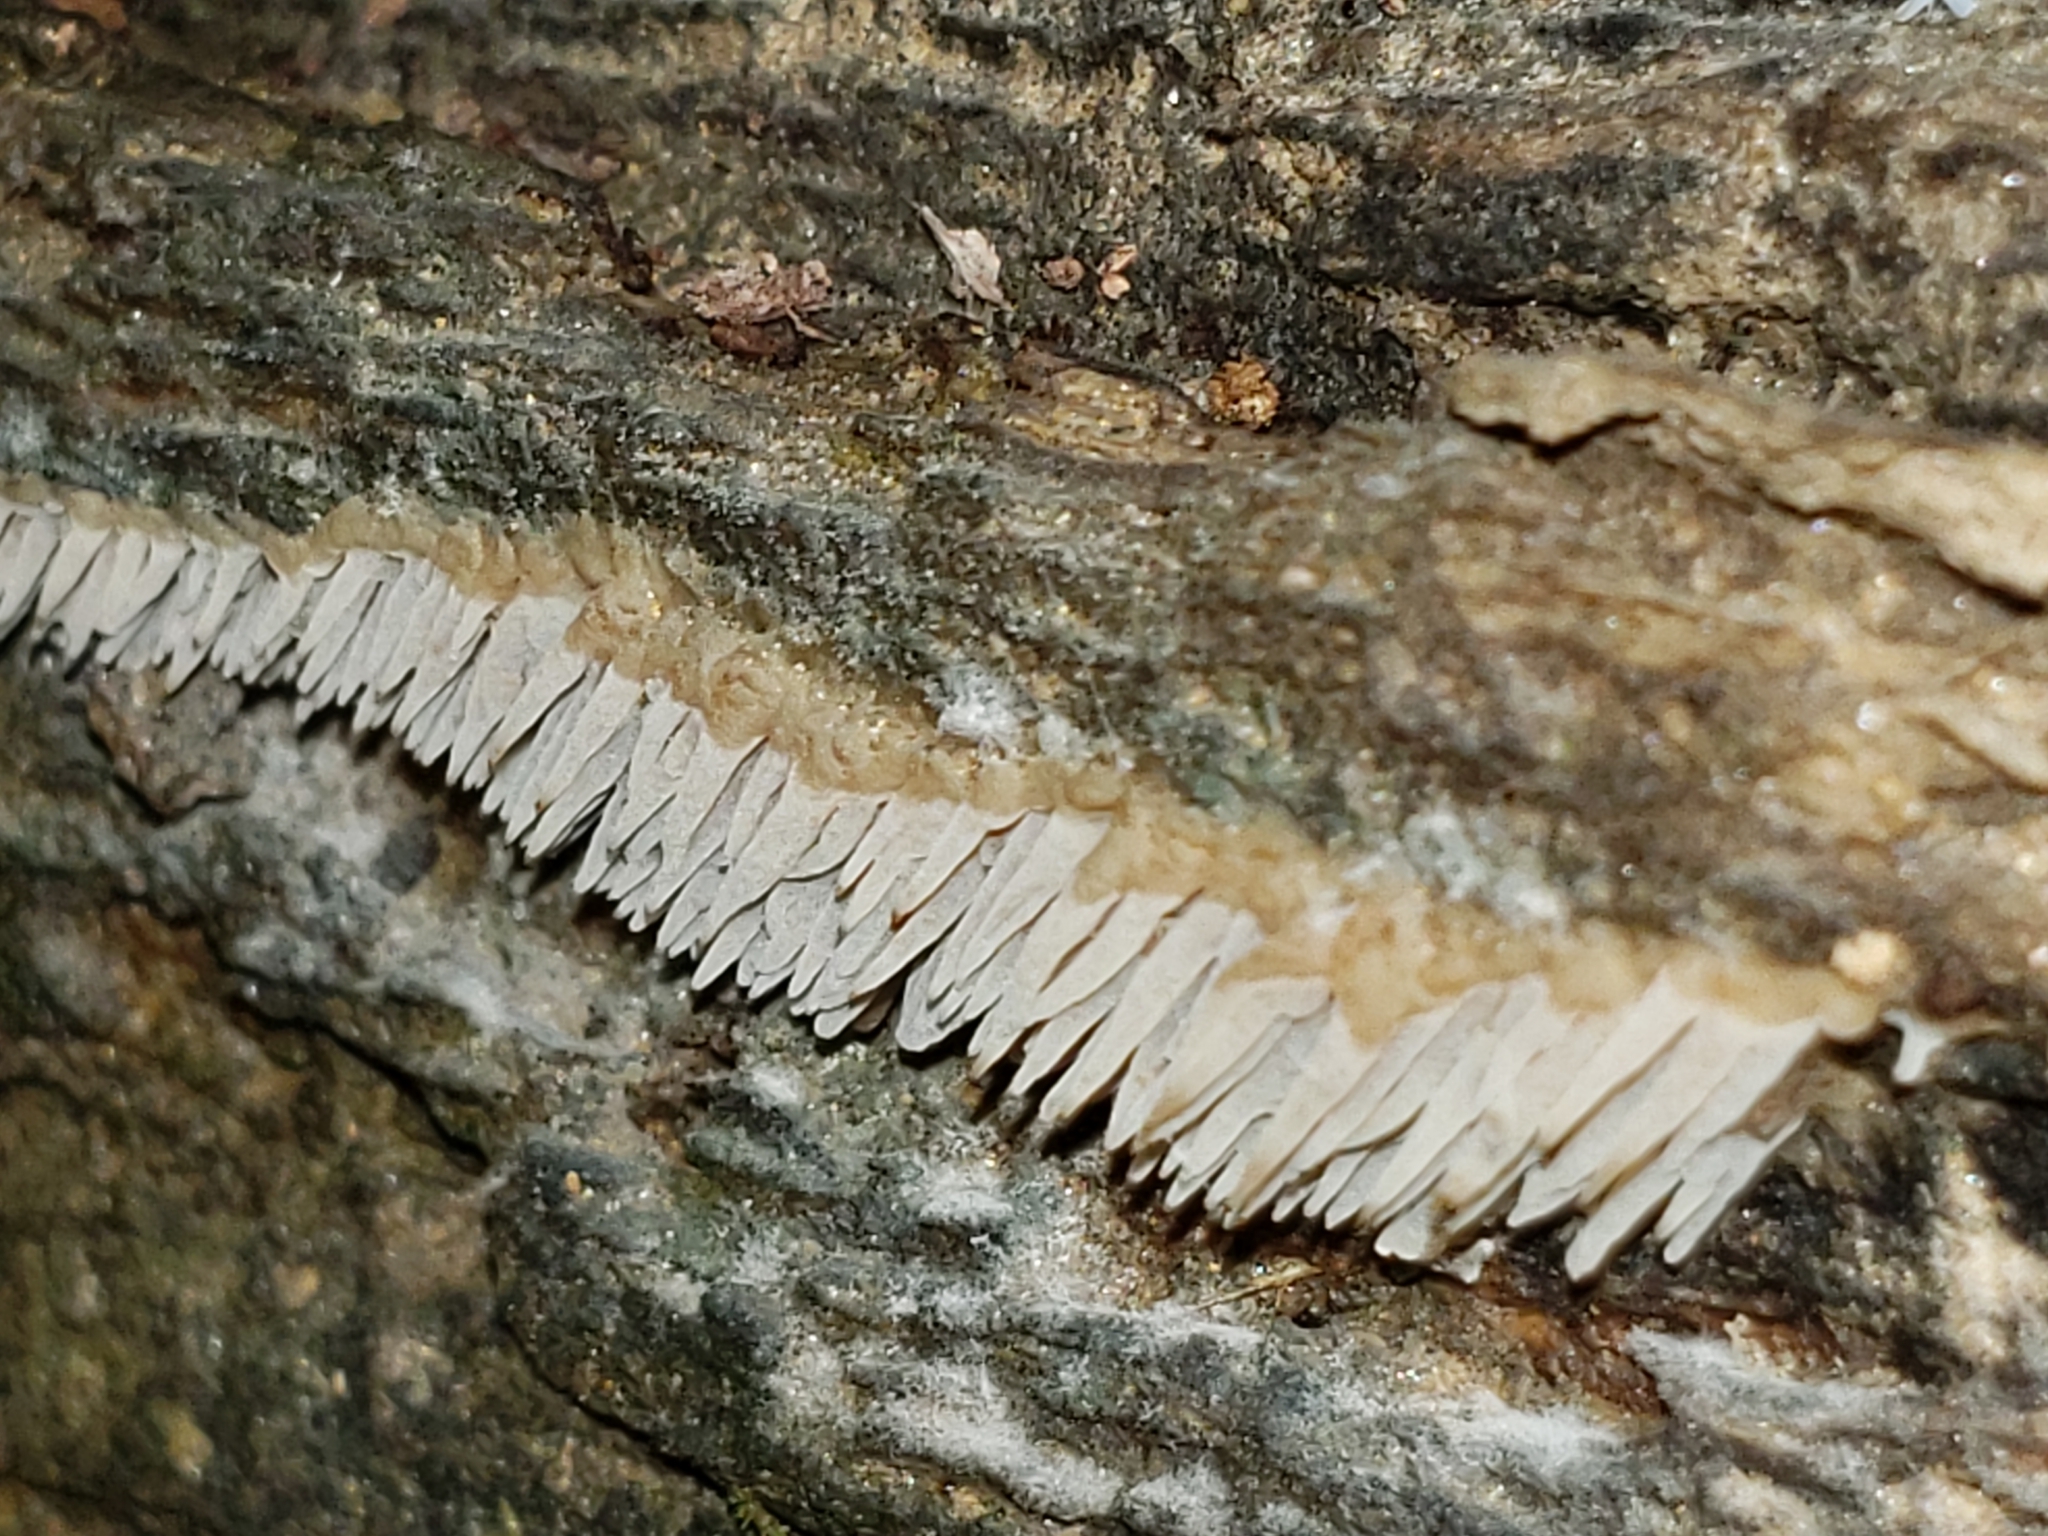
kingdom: Fungi
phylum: Basidiomycota
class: Agaricomycetes
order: Agaricales
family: Radulomycetaceae
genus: Radulomyces
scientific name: Radulomyces copelandii
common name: Asian beauty
